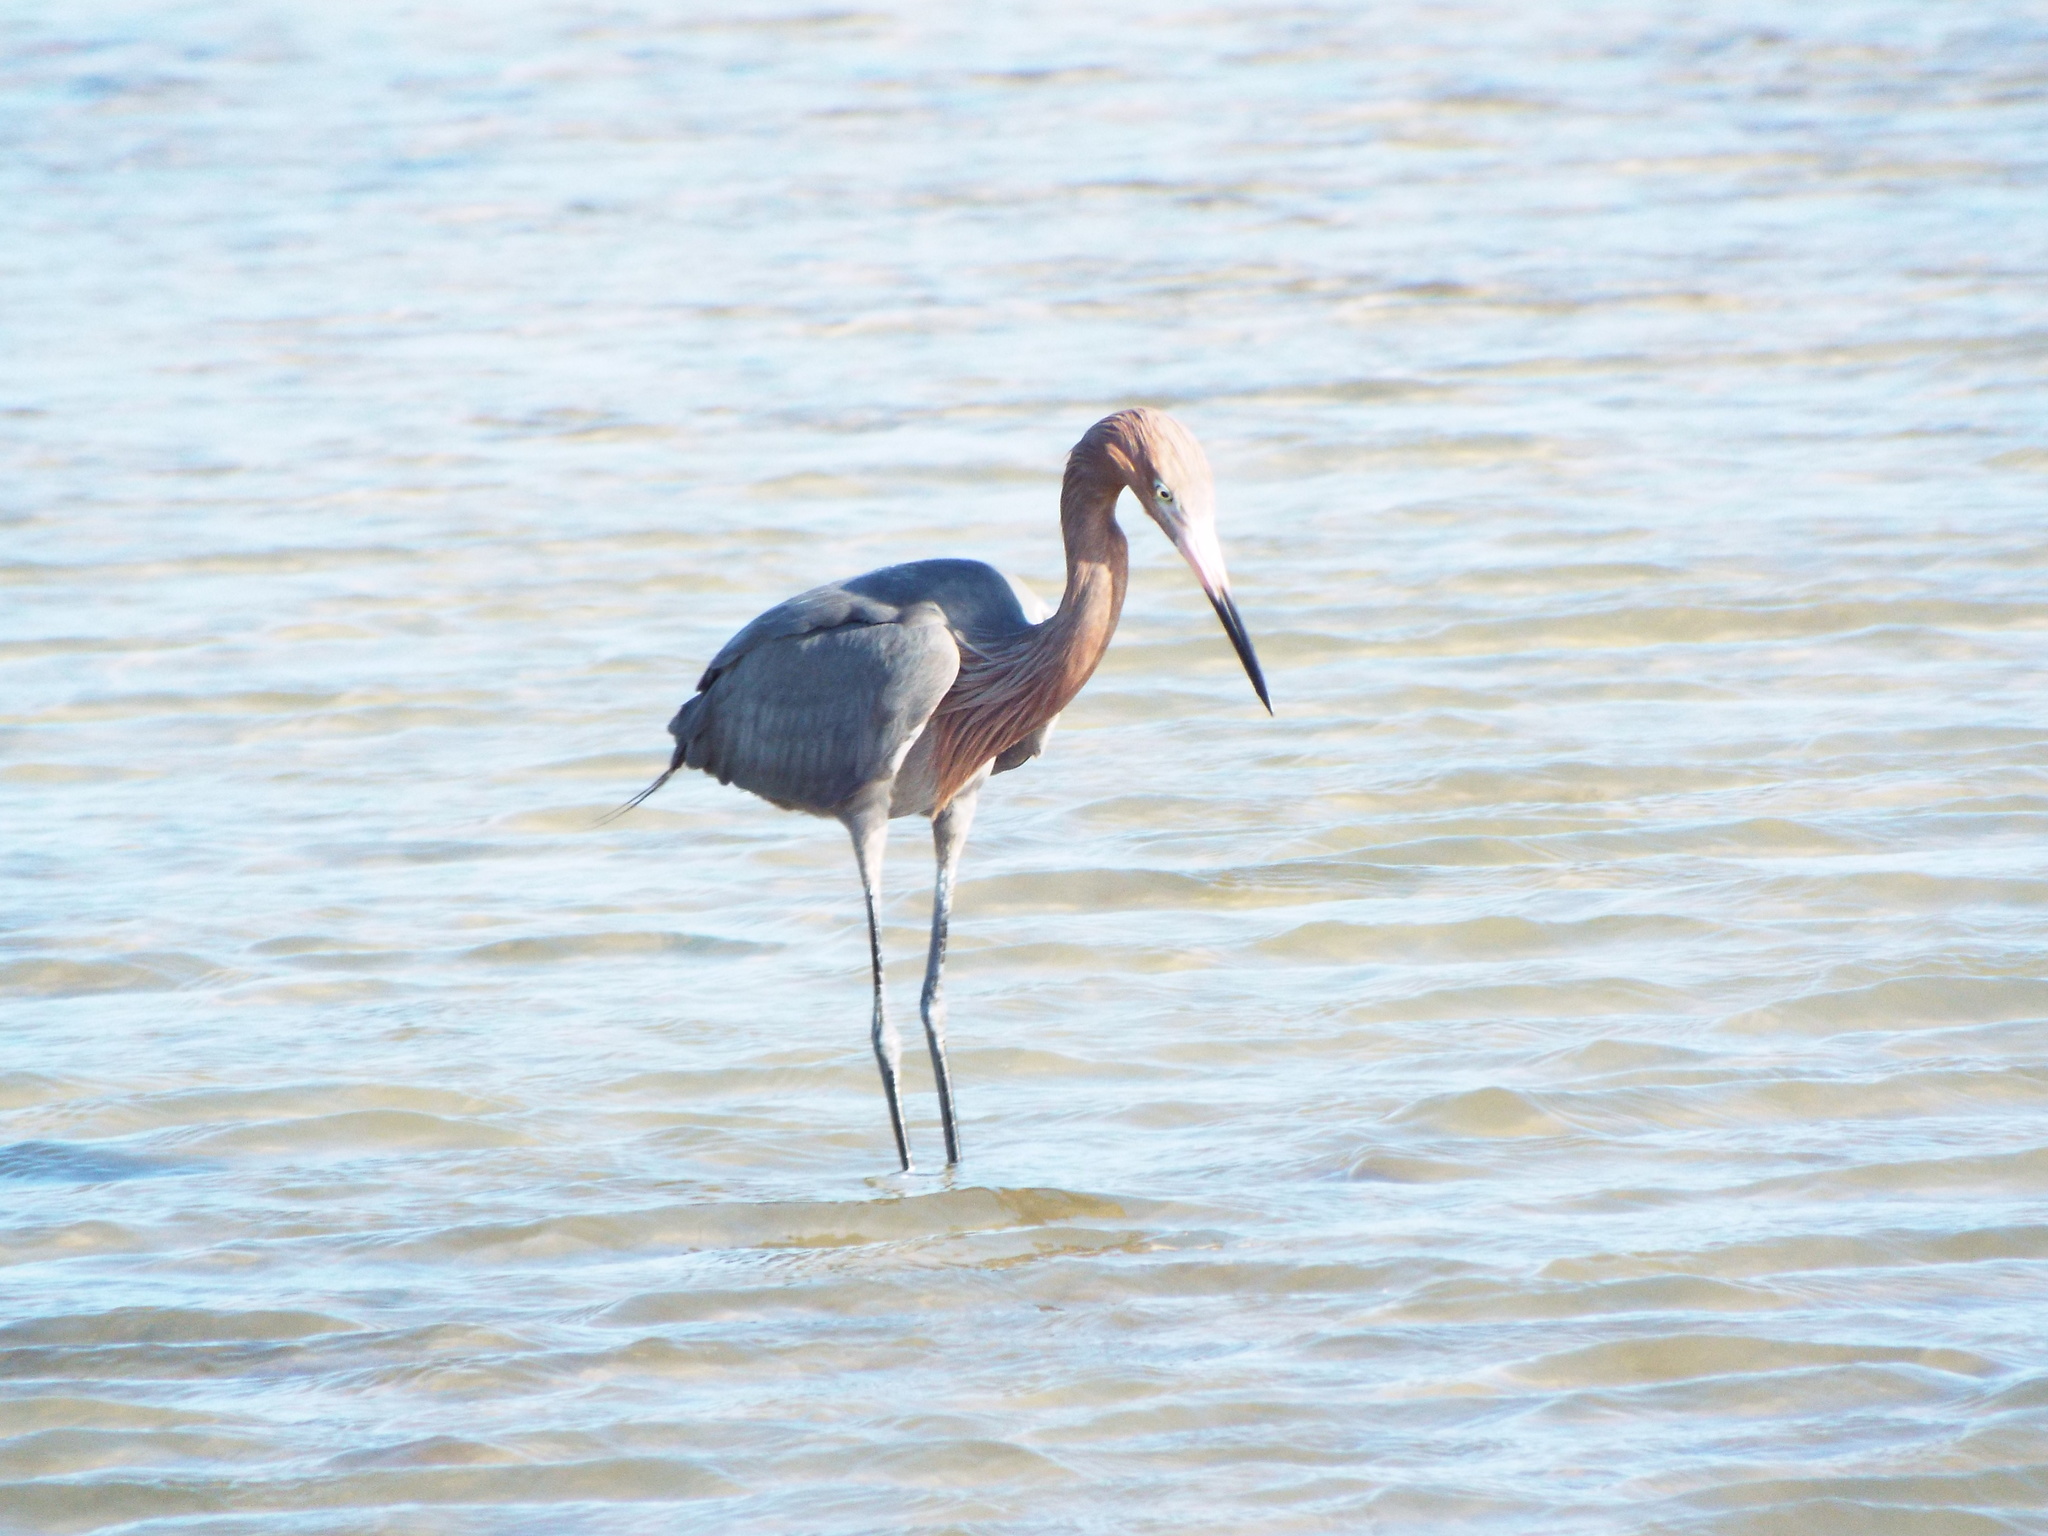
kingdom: Animalia
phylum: Chordata
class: Aves
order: Pelecaniformes
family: Ardeidae
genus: Egretta
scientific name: Egretta rufescens
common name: Reddish egret
